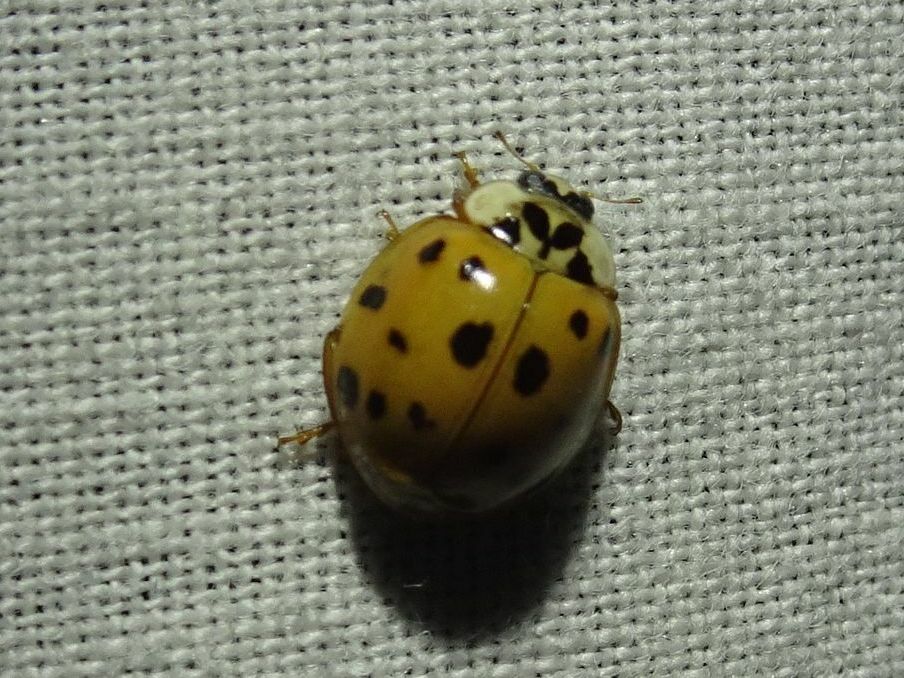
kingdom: Animalia
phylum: Arthropoda
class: Insecta
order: Coleoptera
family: Coccinellidae
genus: Harmonia
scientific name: Harmonia axyridis
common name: Harlequin ladybird
